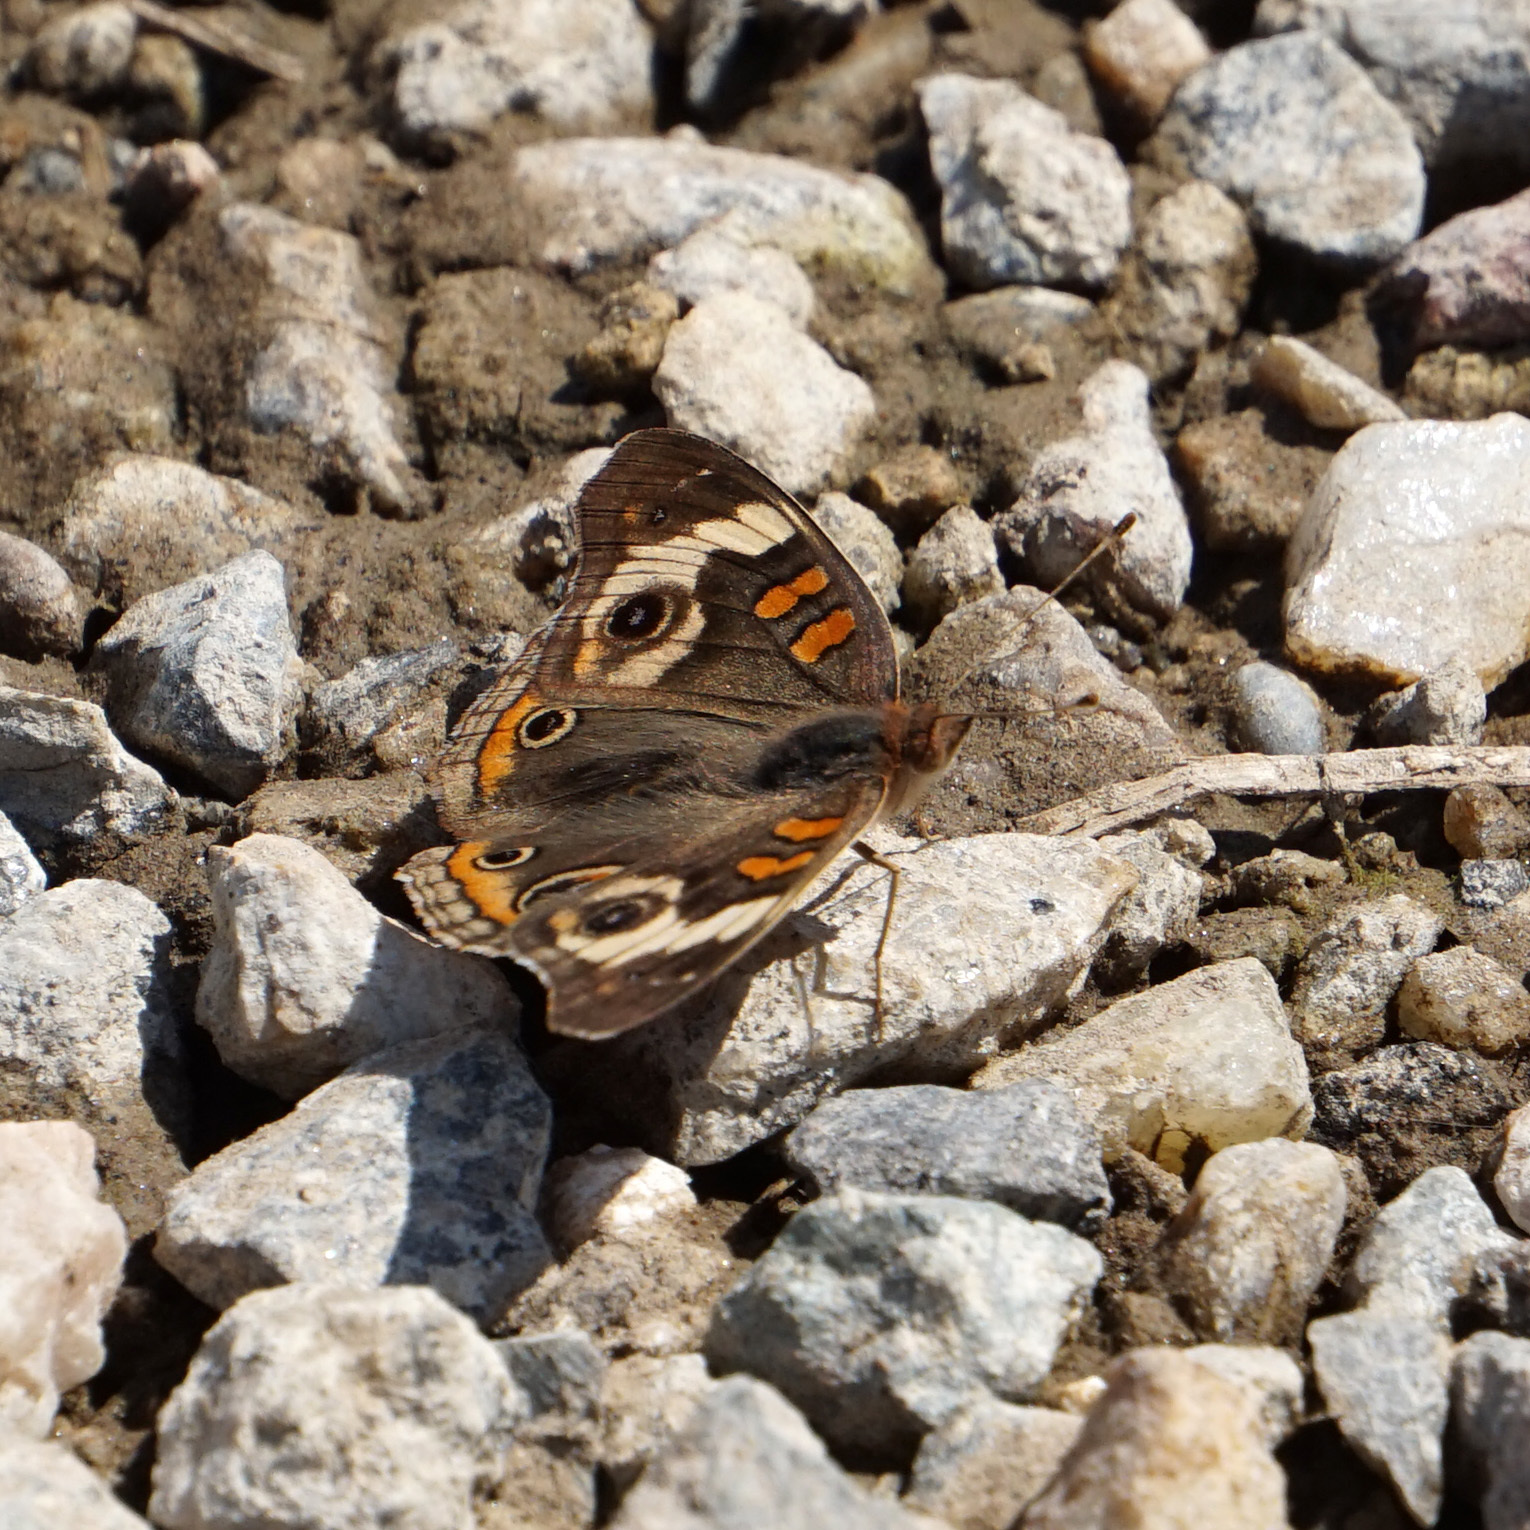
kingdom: Animalia
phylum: Arthropoda
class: Insecta
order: Lepidoptera
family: Nymphalidae
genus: Junonia
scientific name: Junonia coenia
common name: Common buckeye
